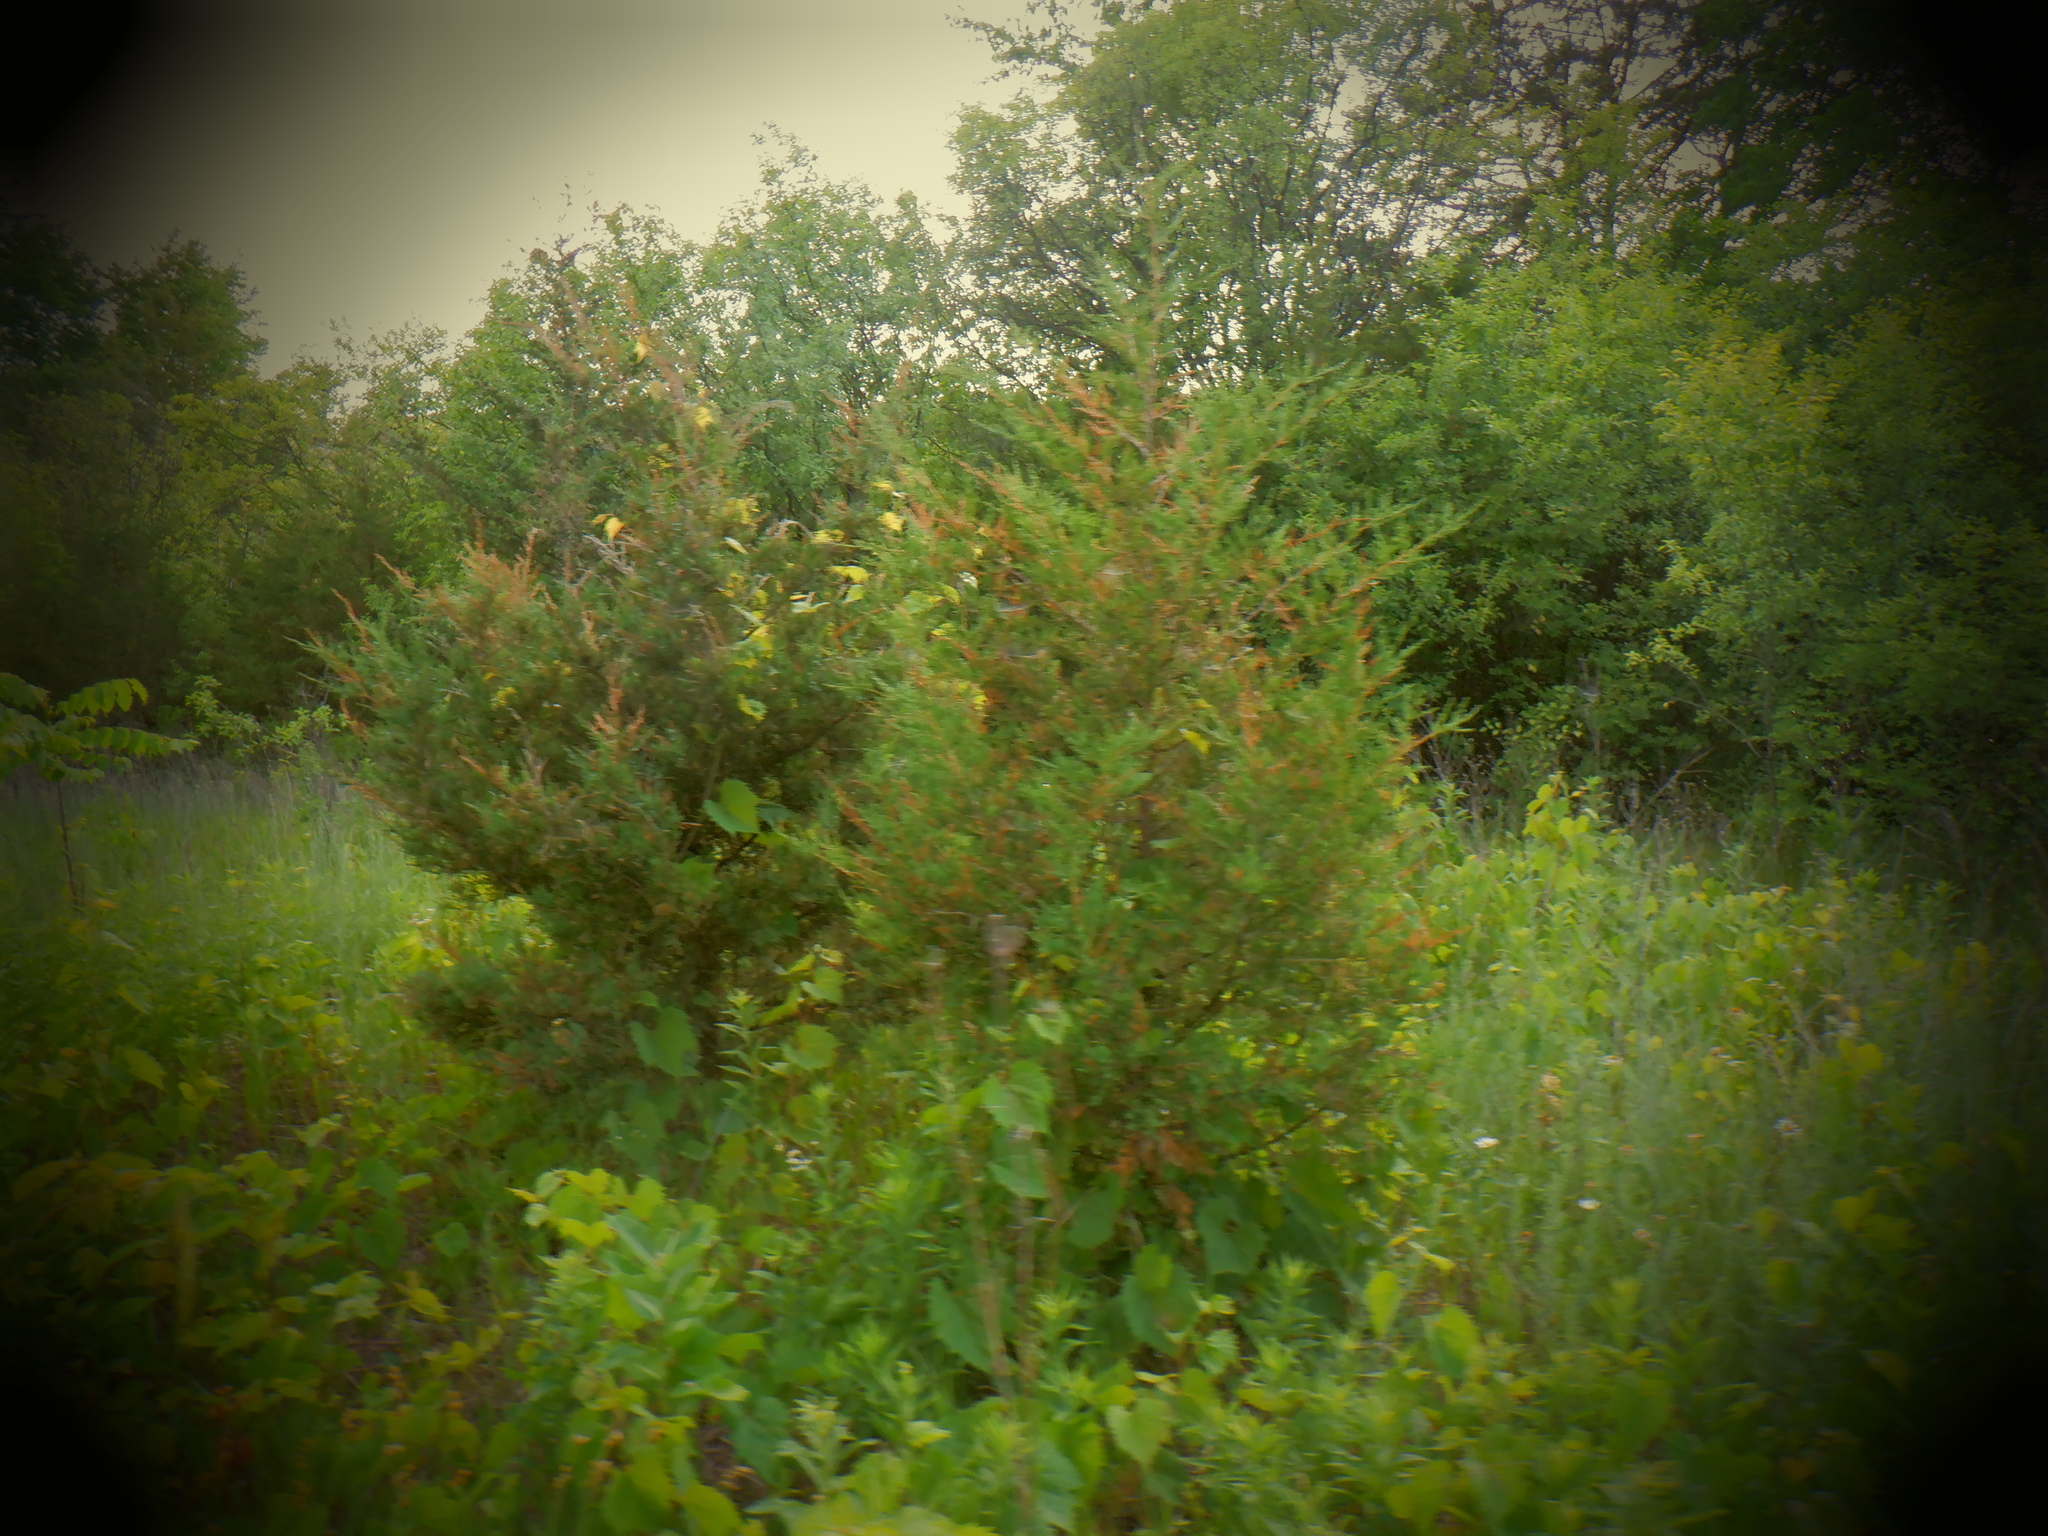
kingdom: Plantae
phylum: Tracheophyta
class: Pinopsida
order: Pinales
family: Cupressaceae
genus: Juniperus
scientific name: Juniperus virginiana
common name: Red juniper
